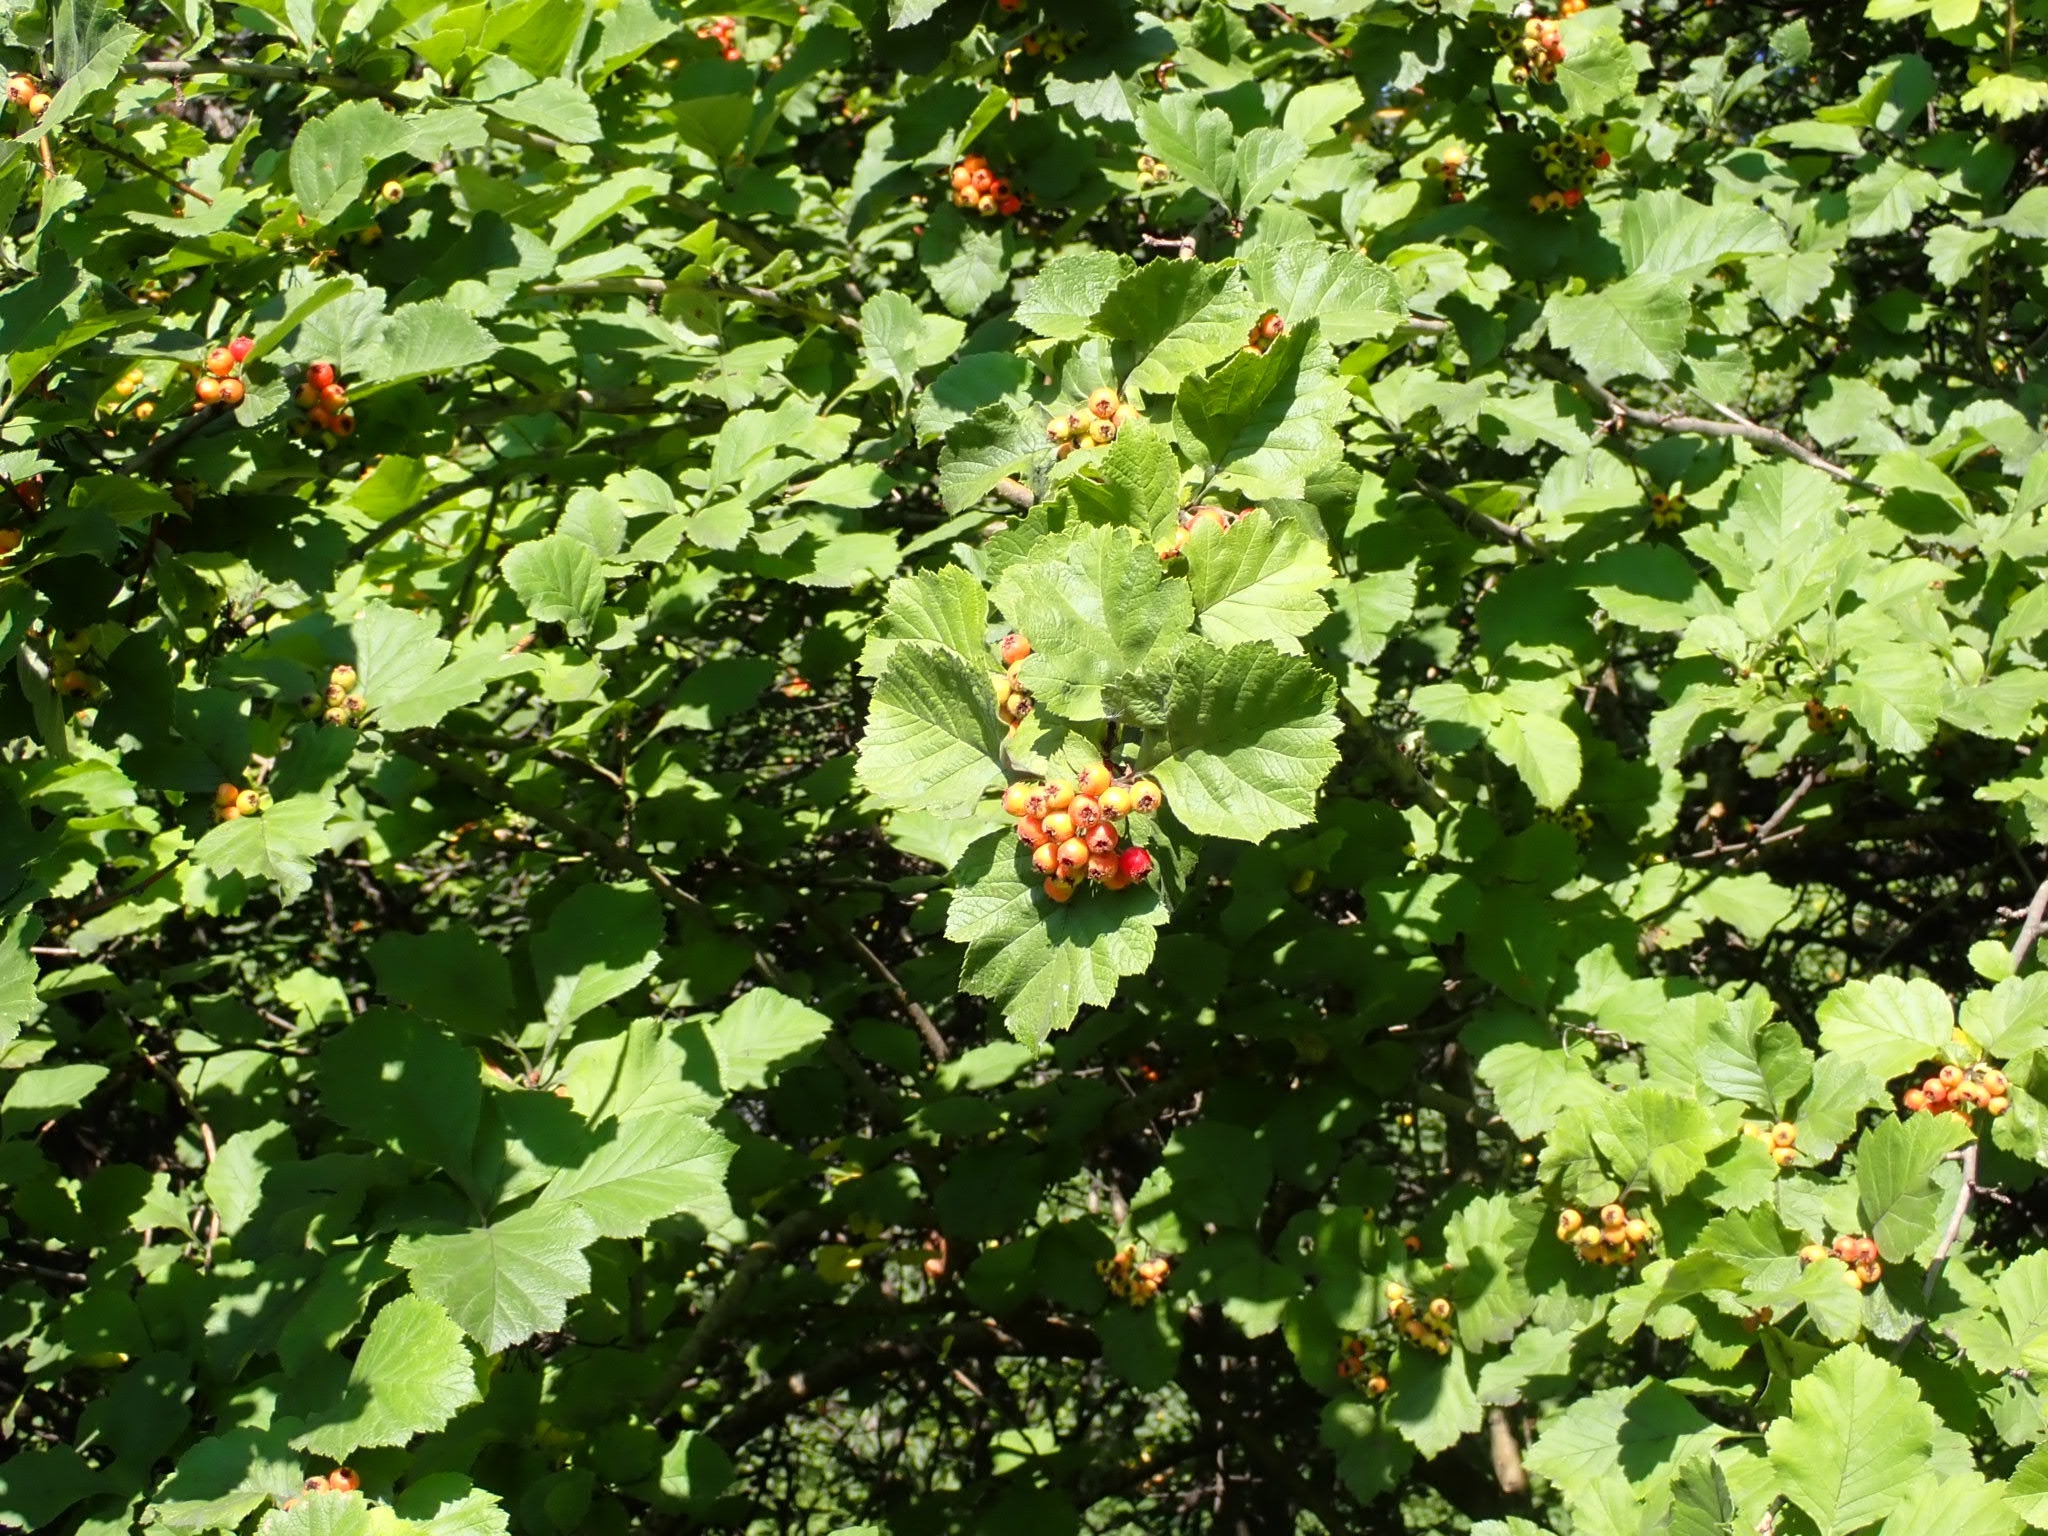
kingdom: Plantae
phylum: Tracheophyta
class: Magnoliopsida
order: Rosales
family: Rosaceae
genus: Crataegus
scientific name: Crataegus sanguinea
